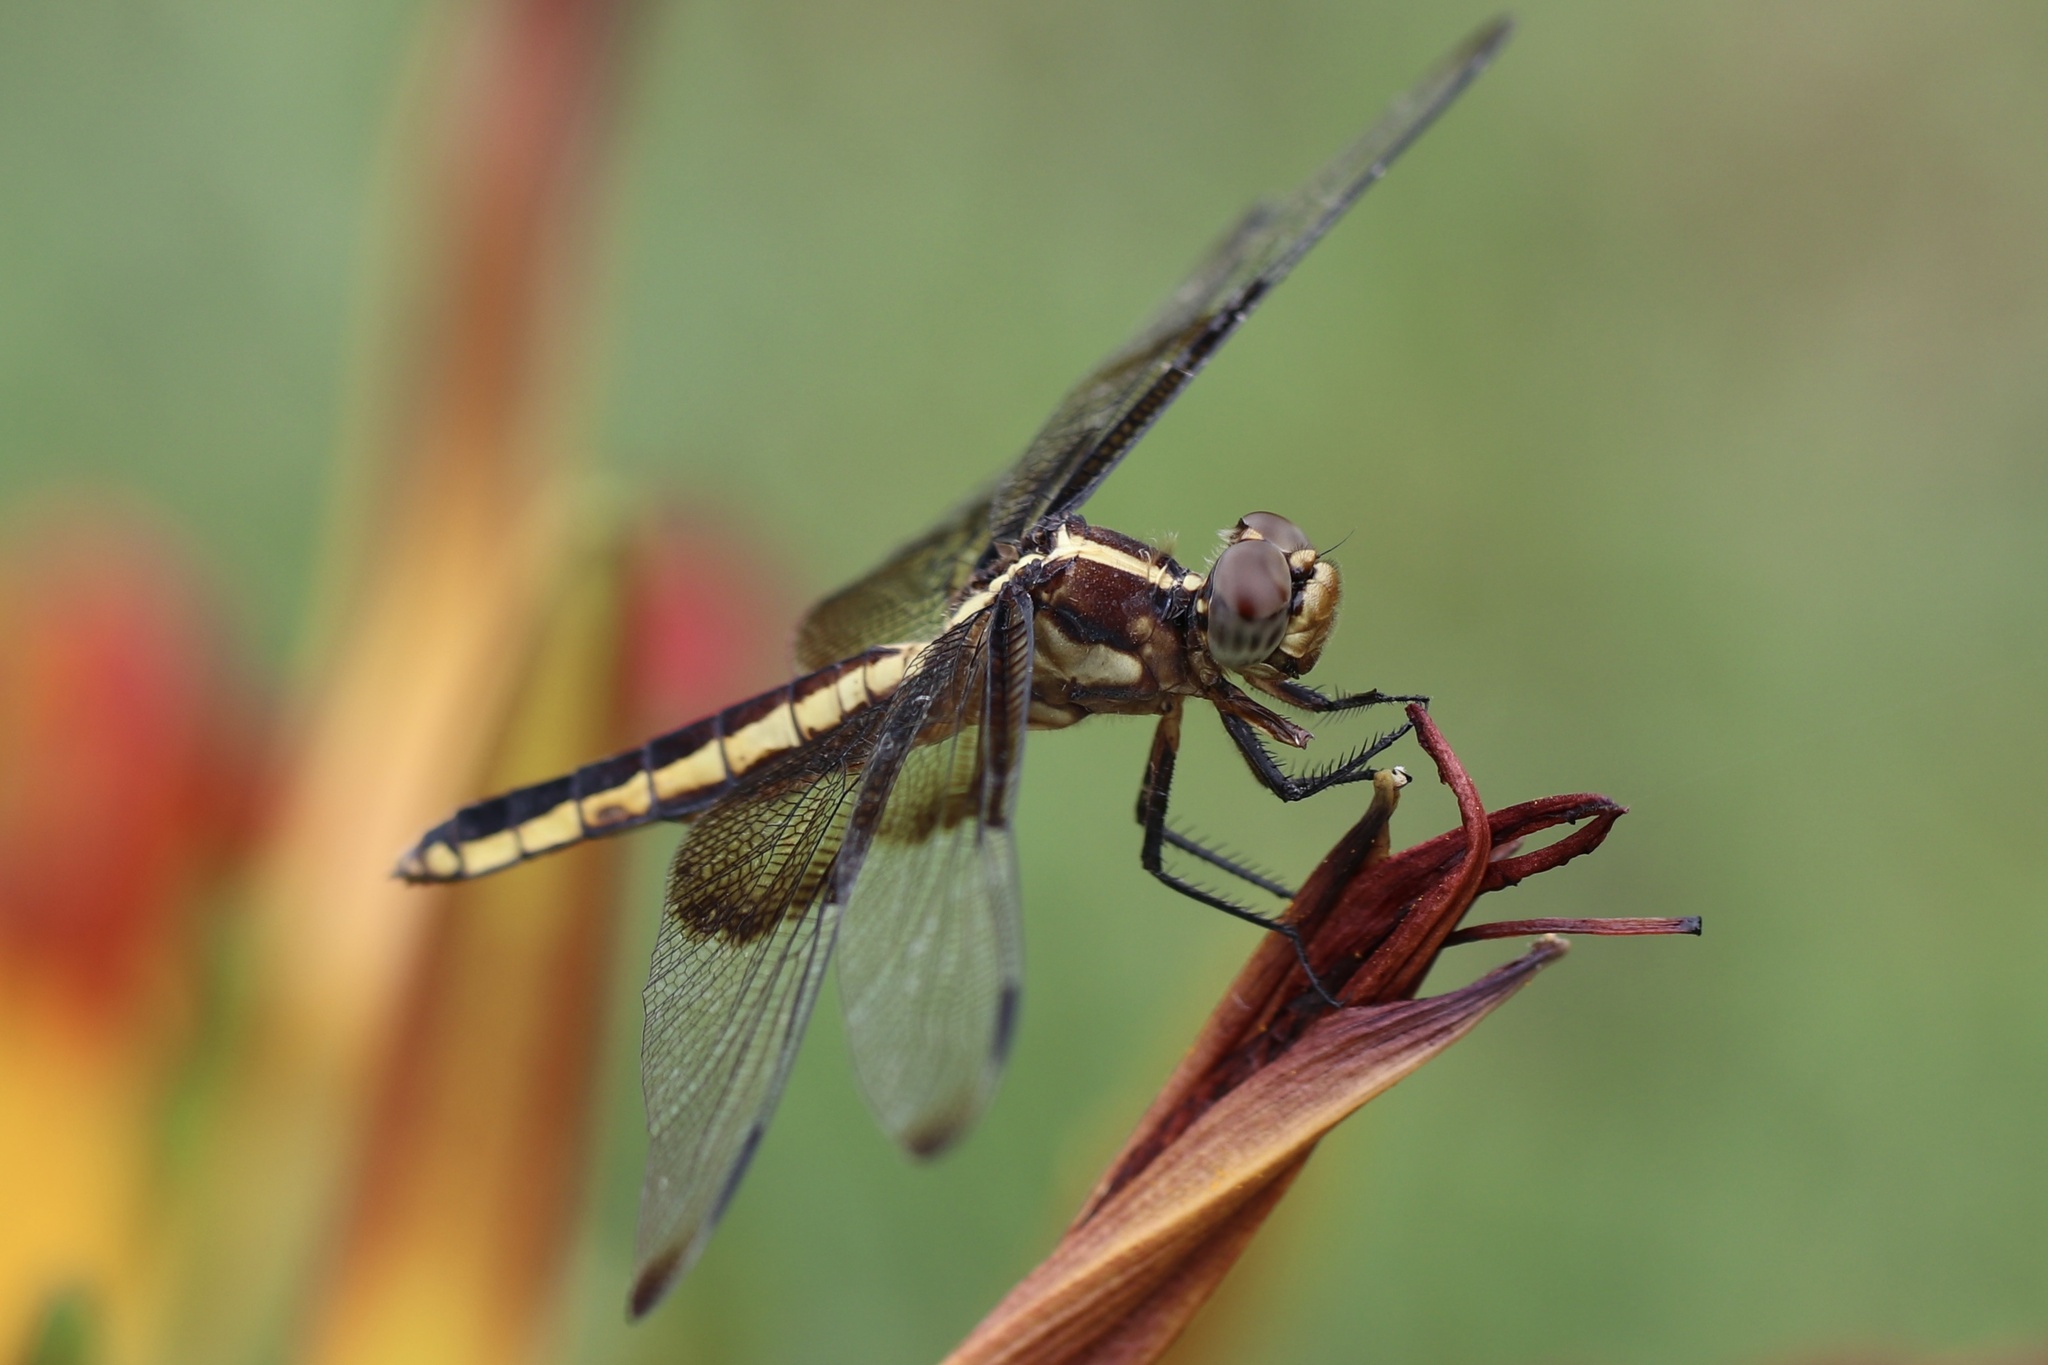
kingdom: Animalia
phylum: Arthropoda
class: Insecta
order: Odonata
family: Libellulidae
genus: Libellula
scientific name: Libellula luctuosa
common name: Widow skimmer
